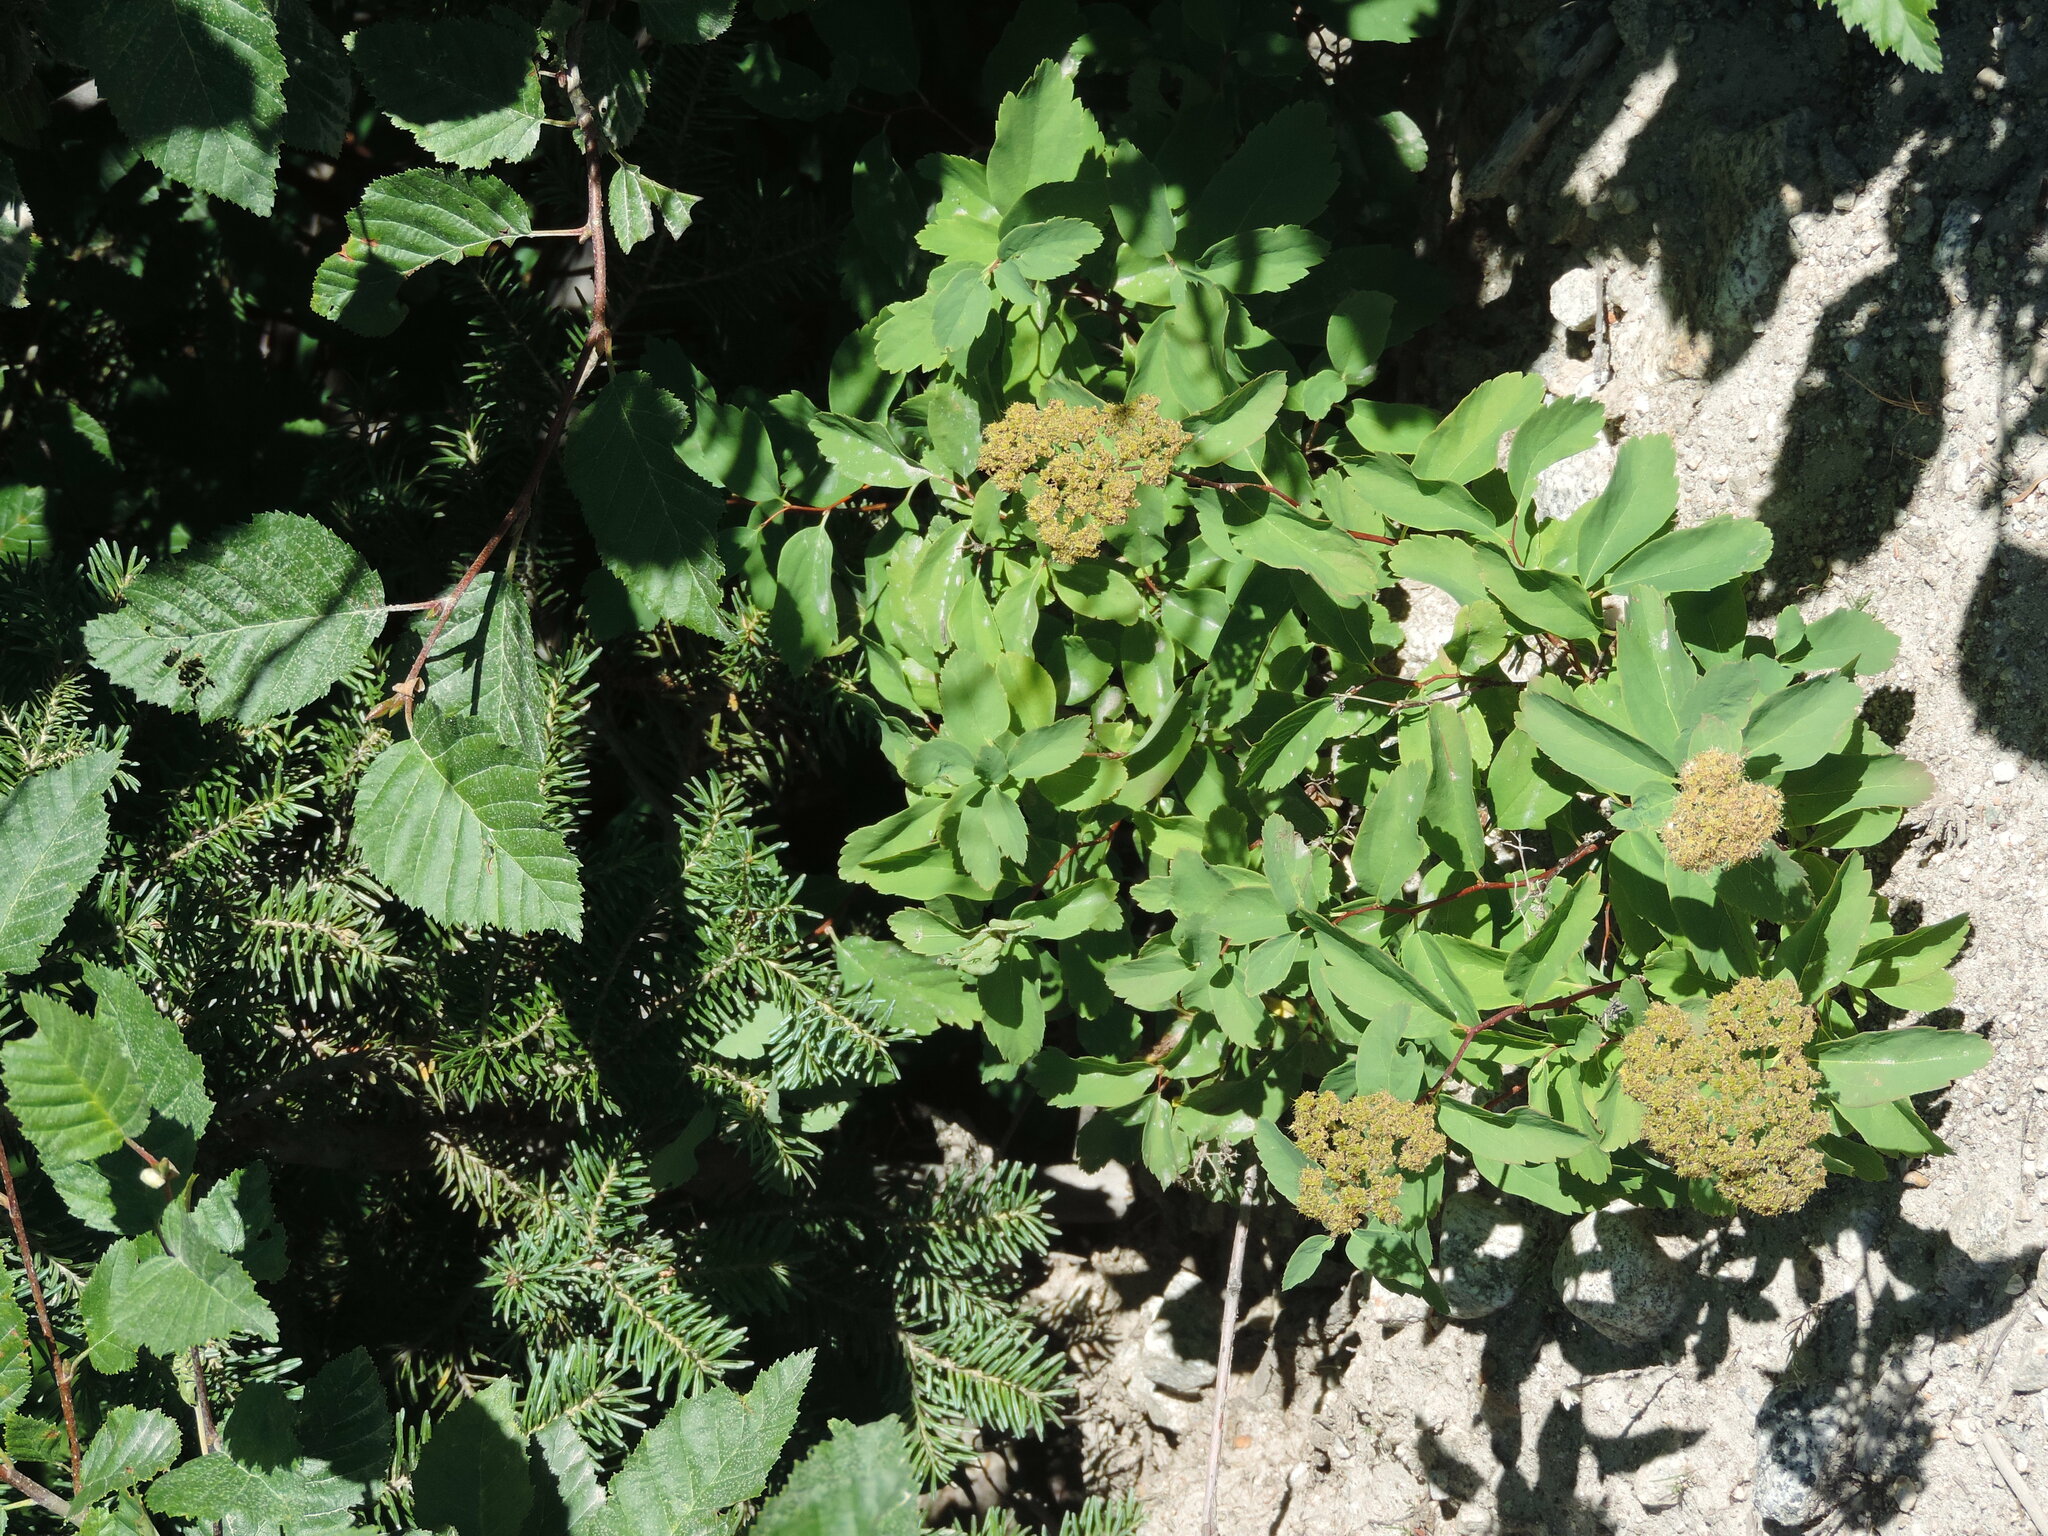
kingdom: Plantae
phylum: Tracheophyta
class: Magnoliopsida
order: Rosales
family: Rosaceae
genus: Spiraea
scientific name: Spiraea lucida
